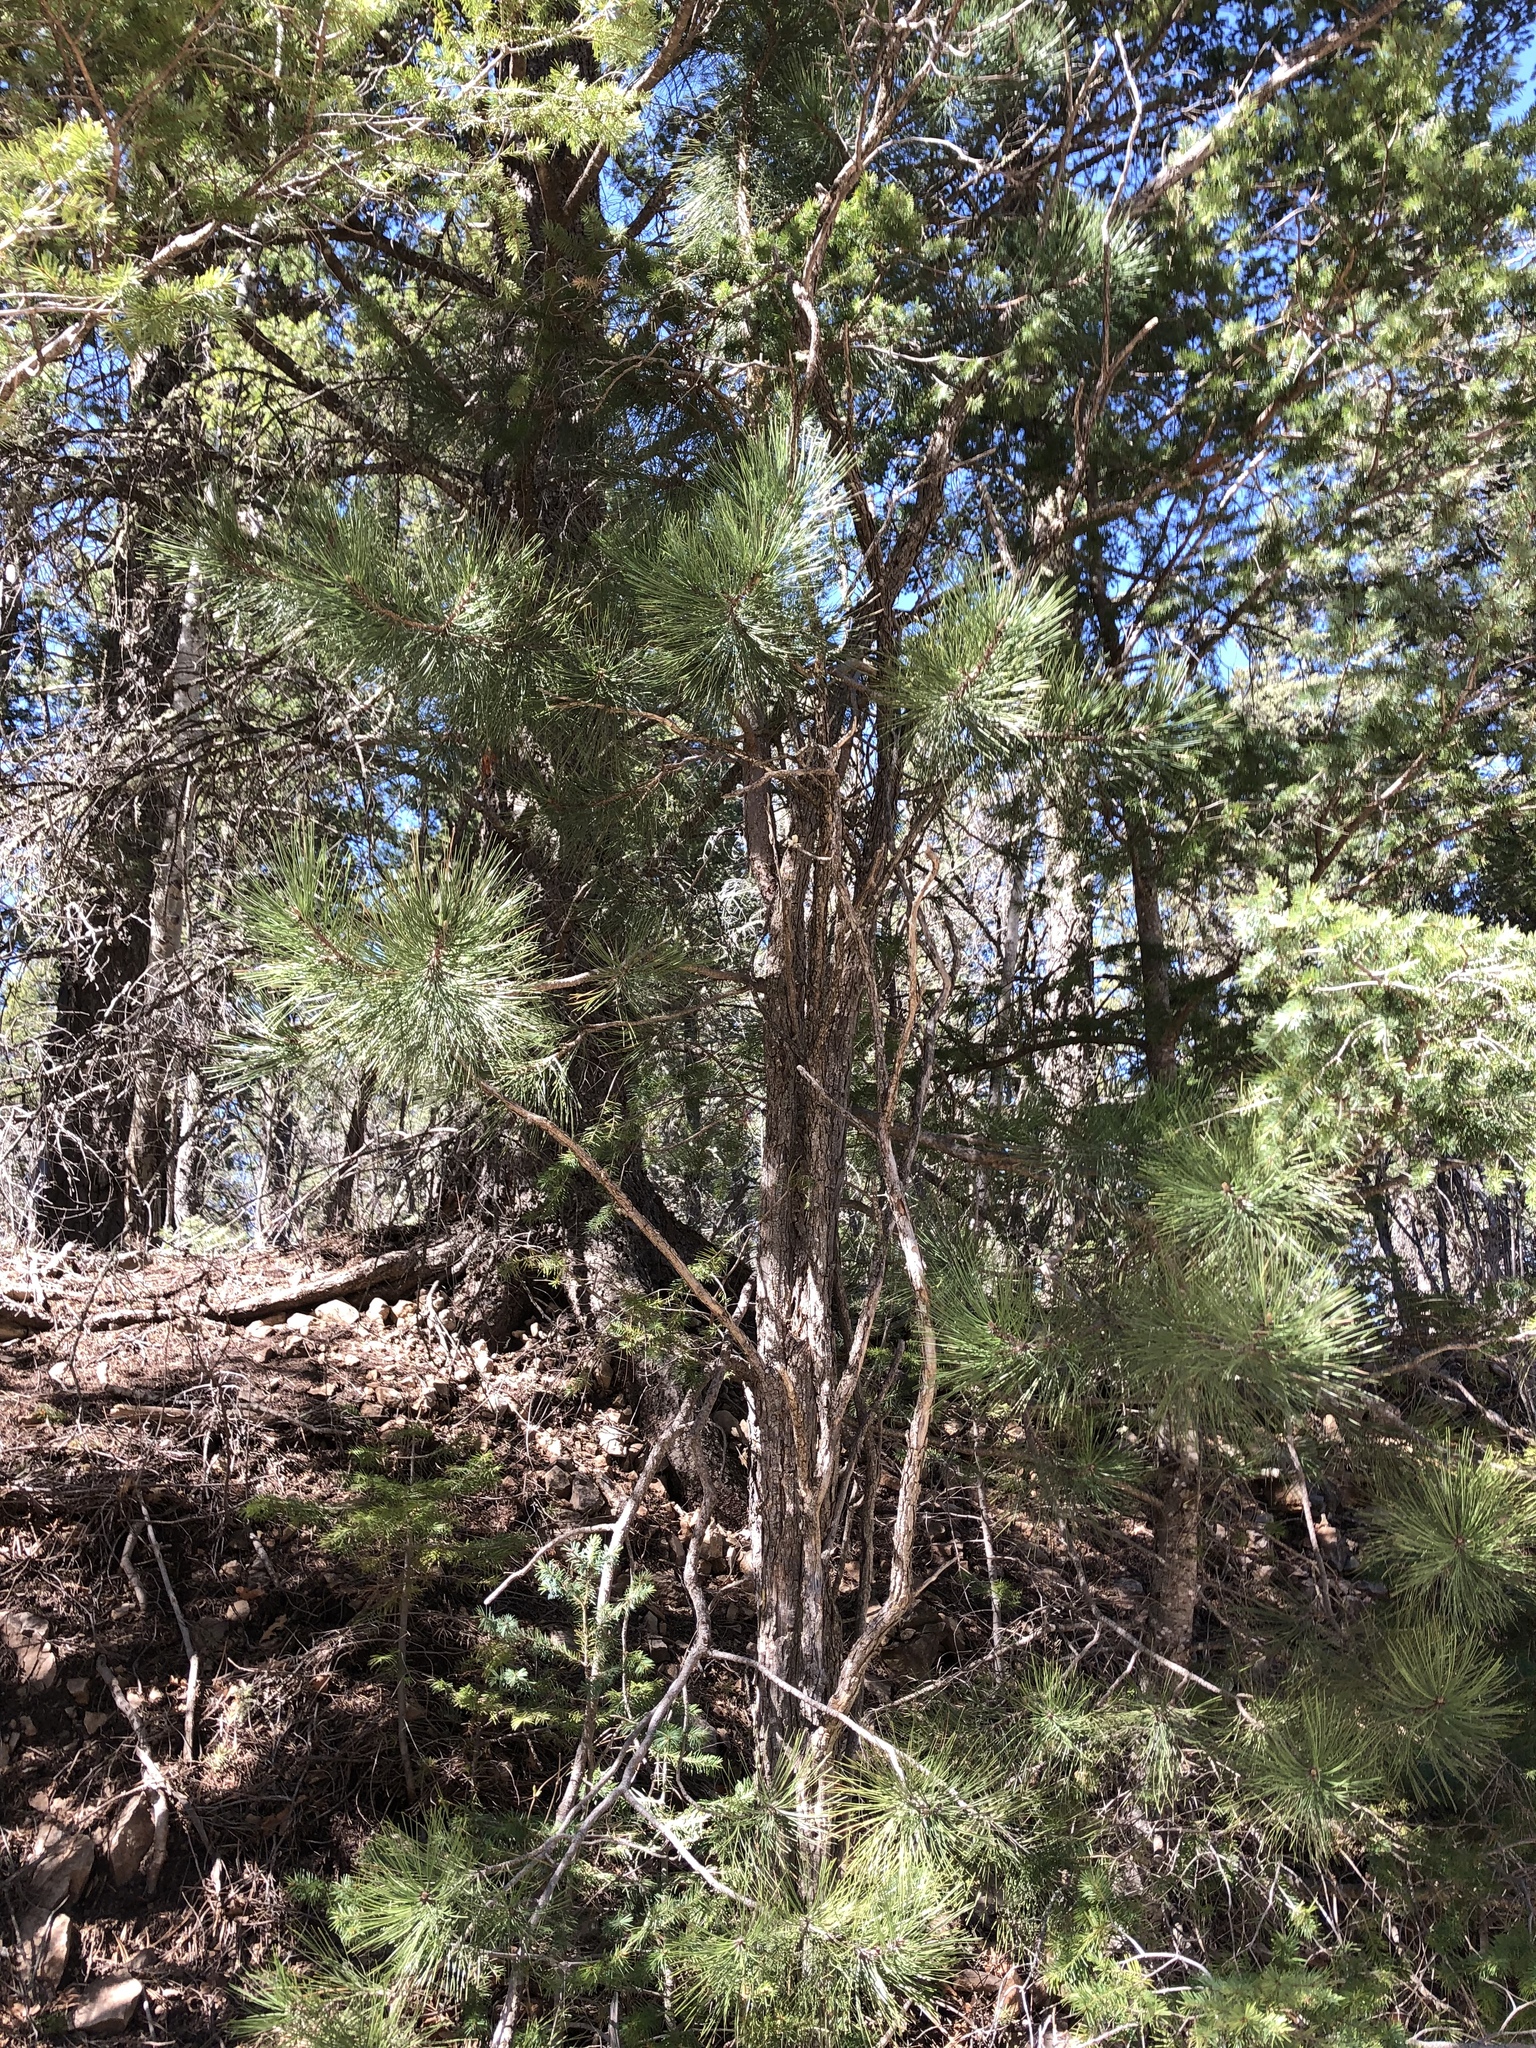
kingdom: Plantae
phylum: Tracheophyta
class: Pinopsida
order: Pinales
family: Pinaceae
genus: Pinus
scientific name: Pinus strobiformis
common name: Southwestern white pine
